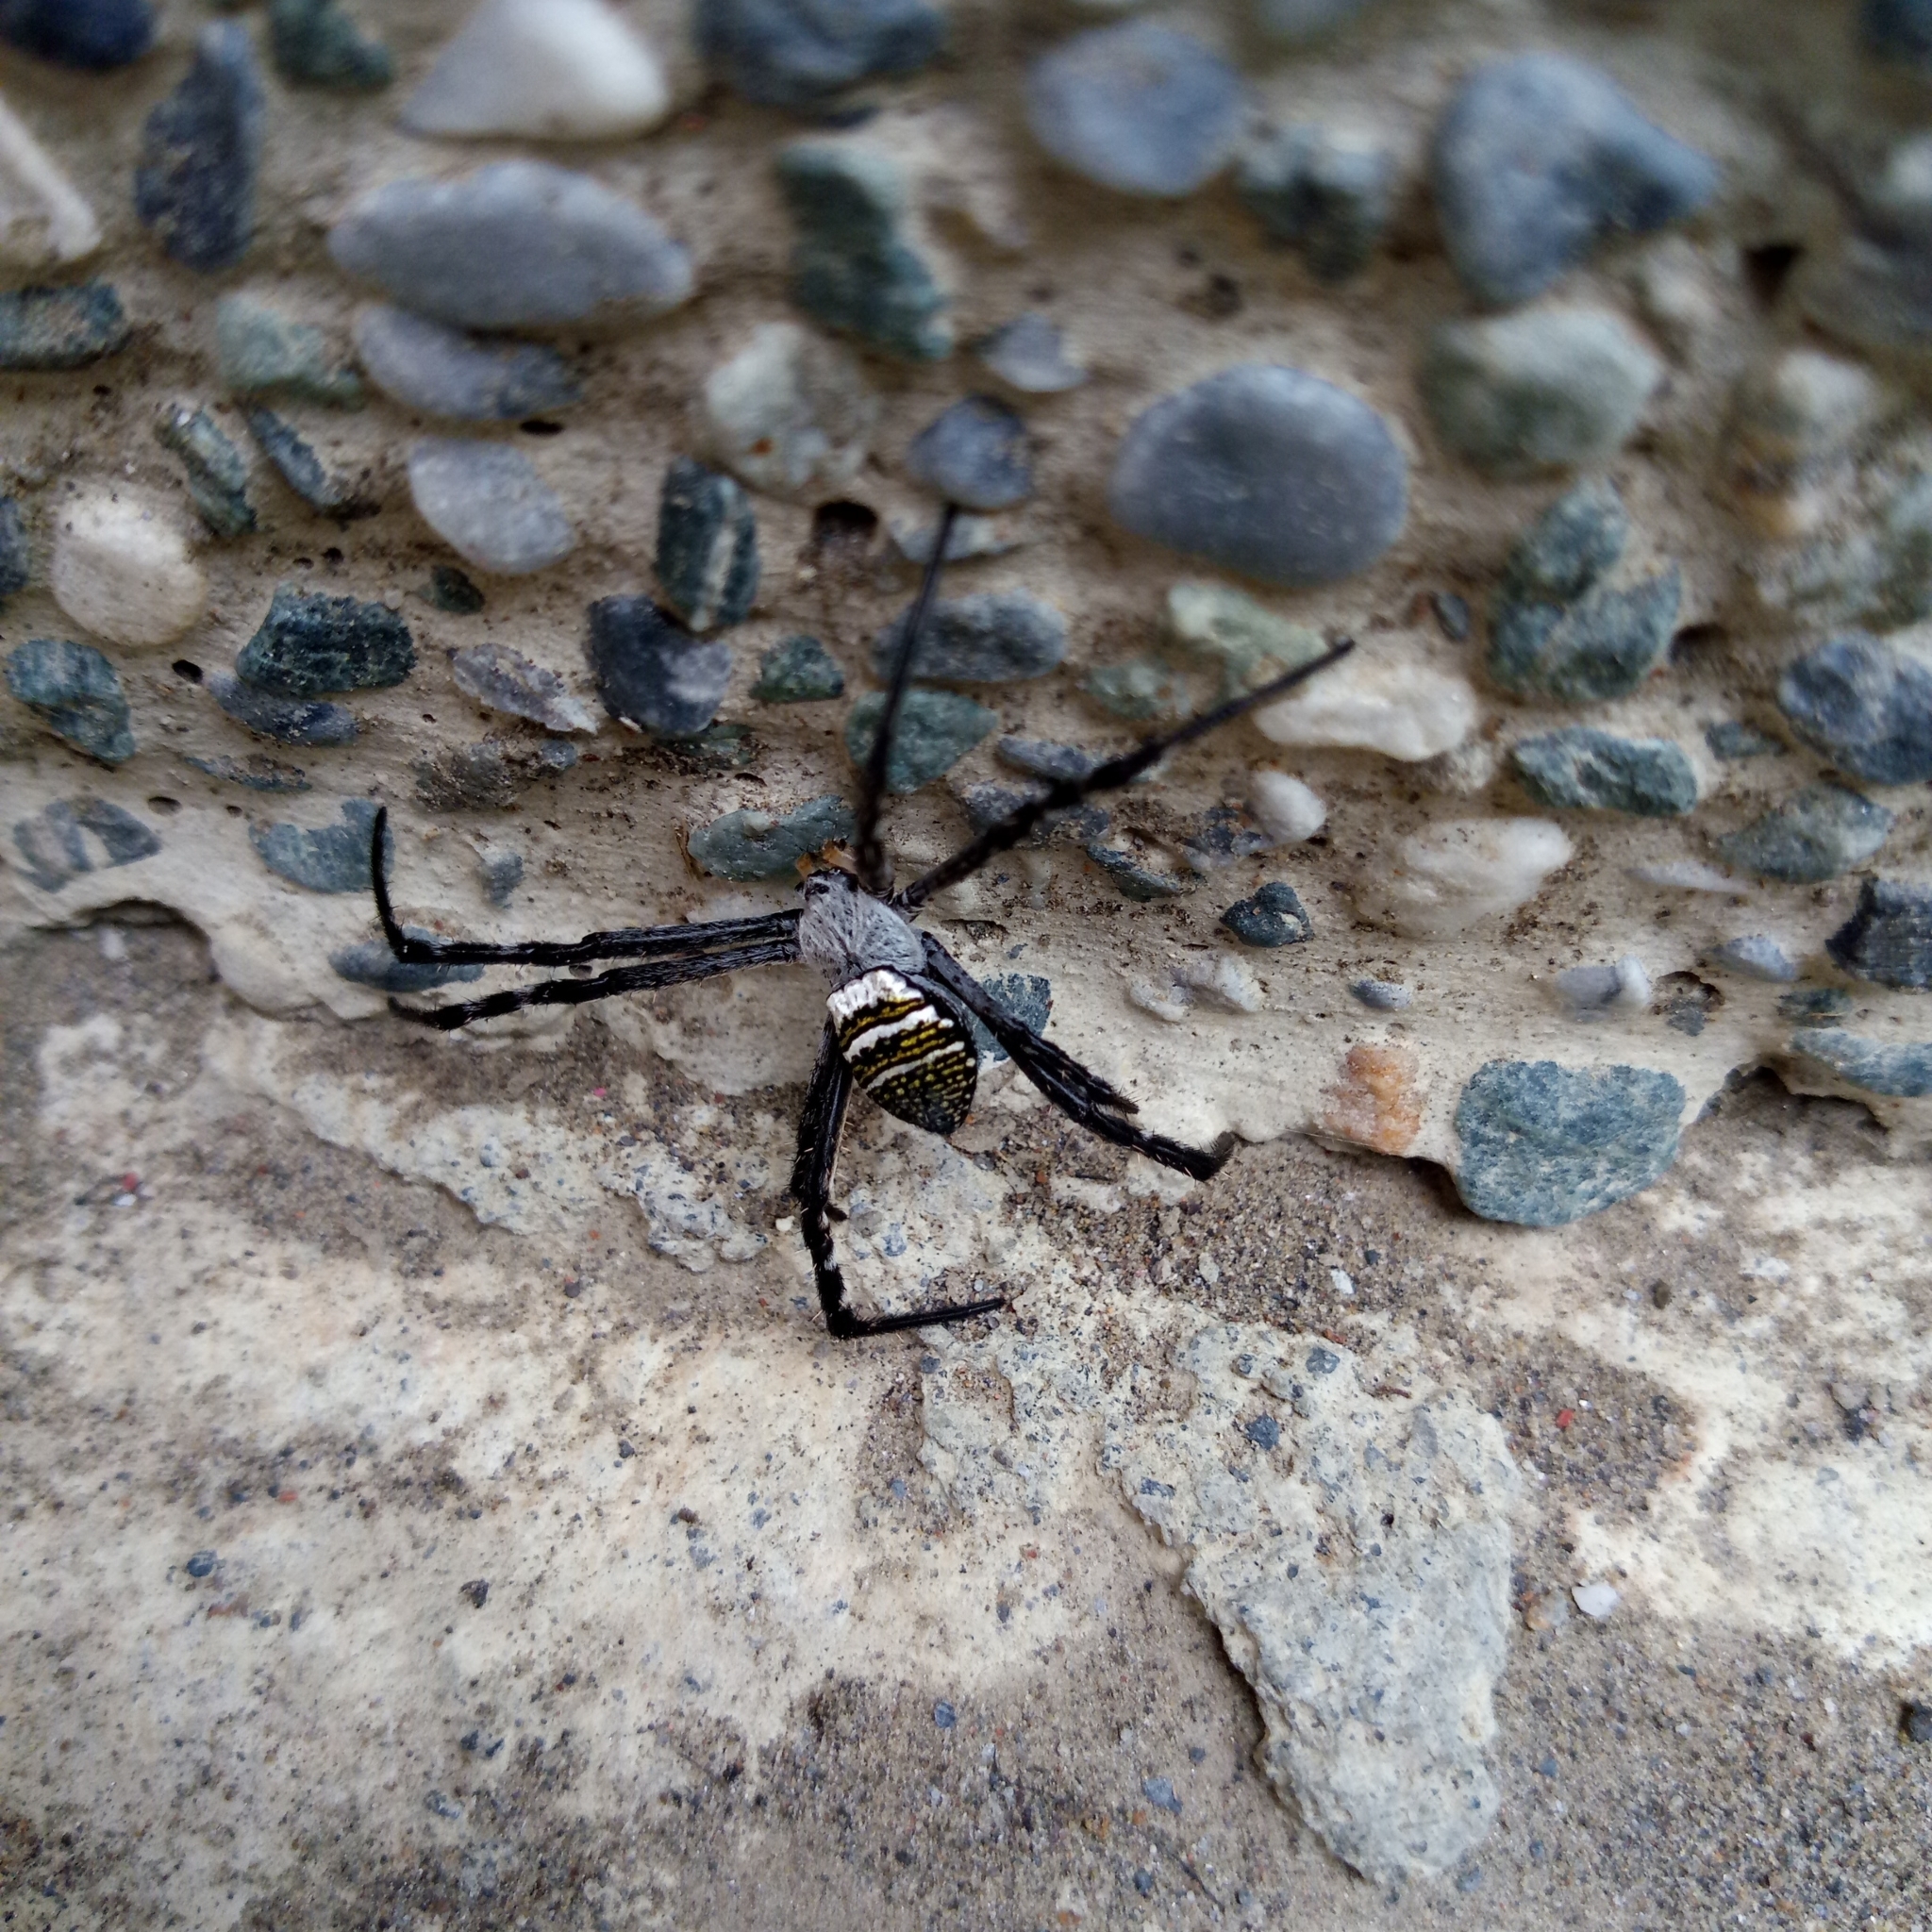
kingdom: Animalia
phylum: Arthropoda
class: Arachnida
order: Araneae
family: Araneidae
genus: Argiope
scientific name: Argiope aemula
